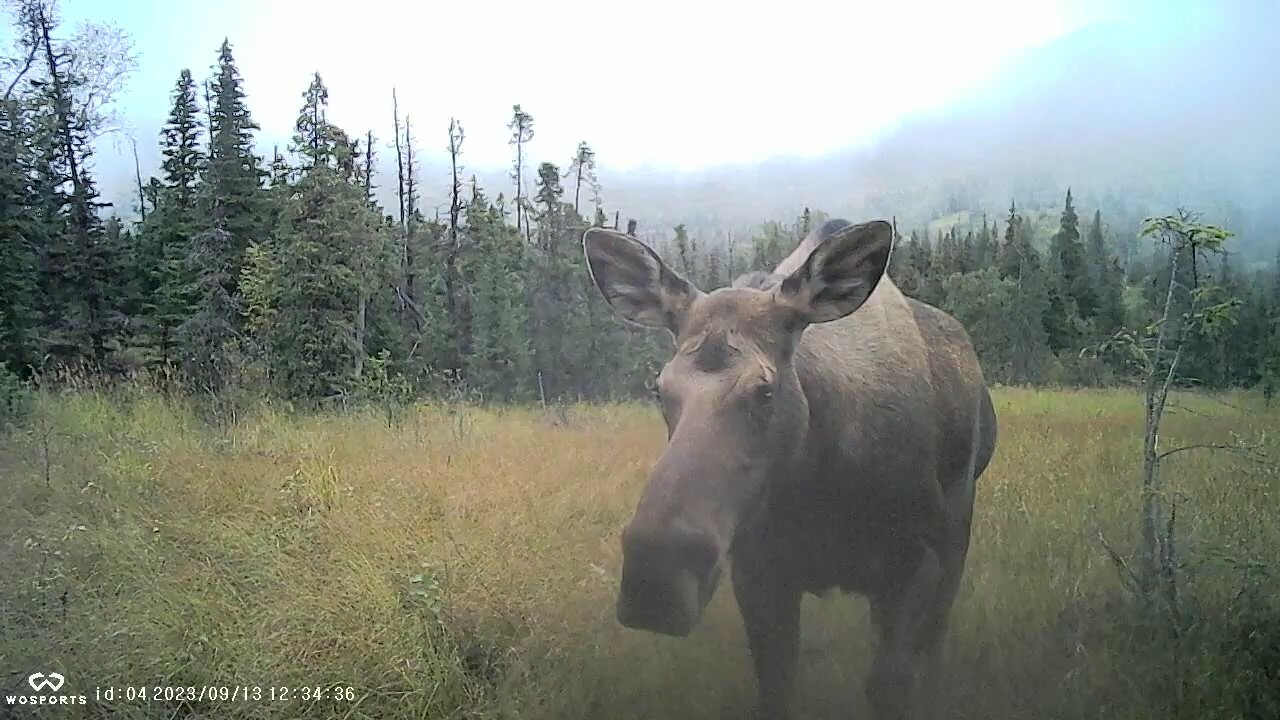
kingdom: Animalia
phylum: Chordata
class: Mammalia
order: Artiodactyla
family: Cervidae
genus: Alces
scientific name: Alces alces
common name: Moose
